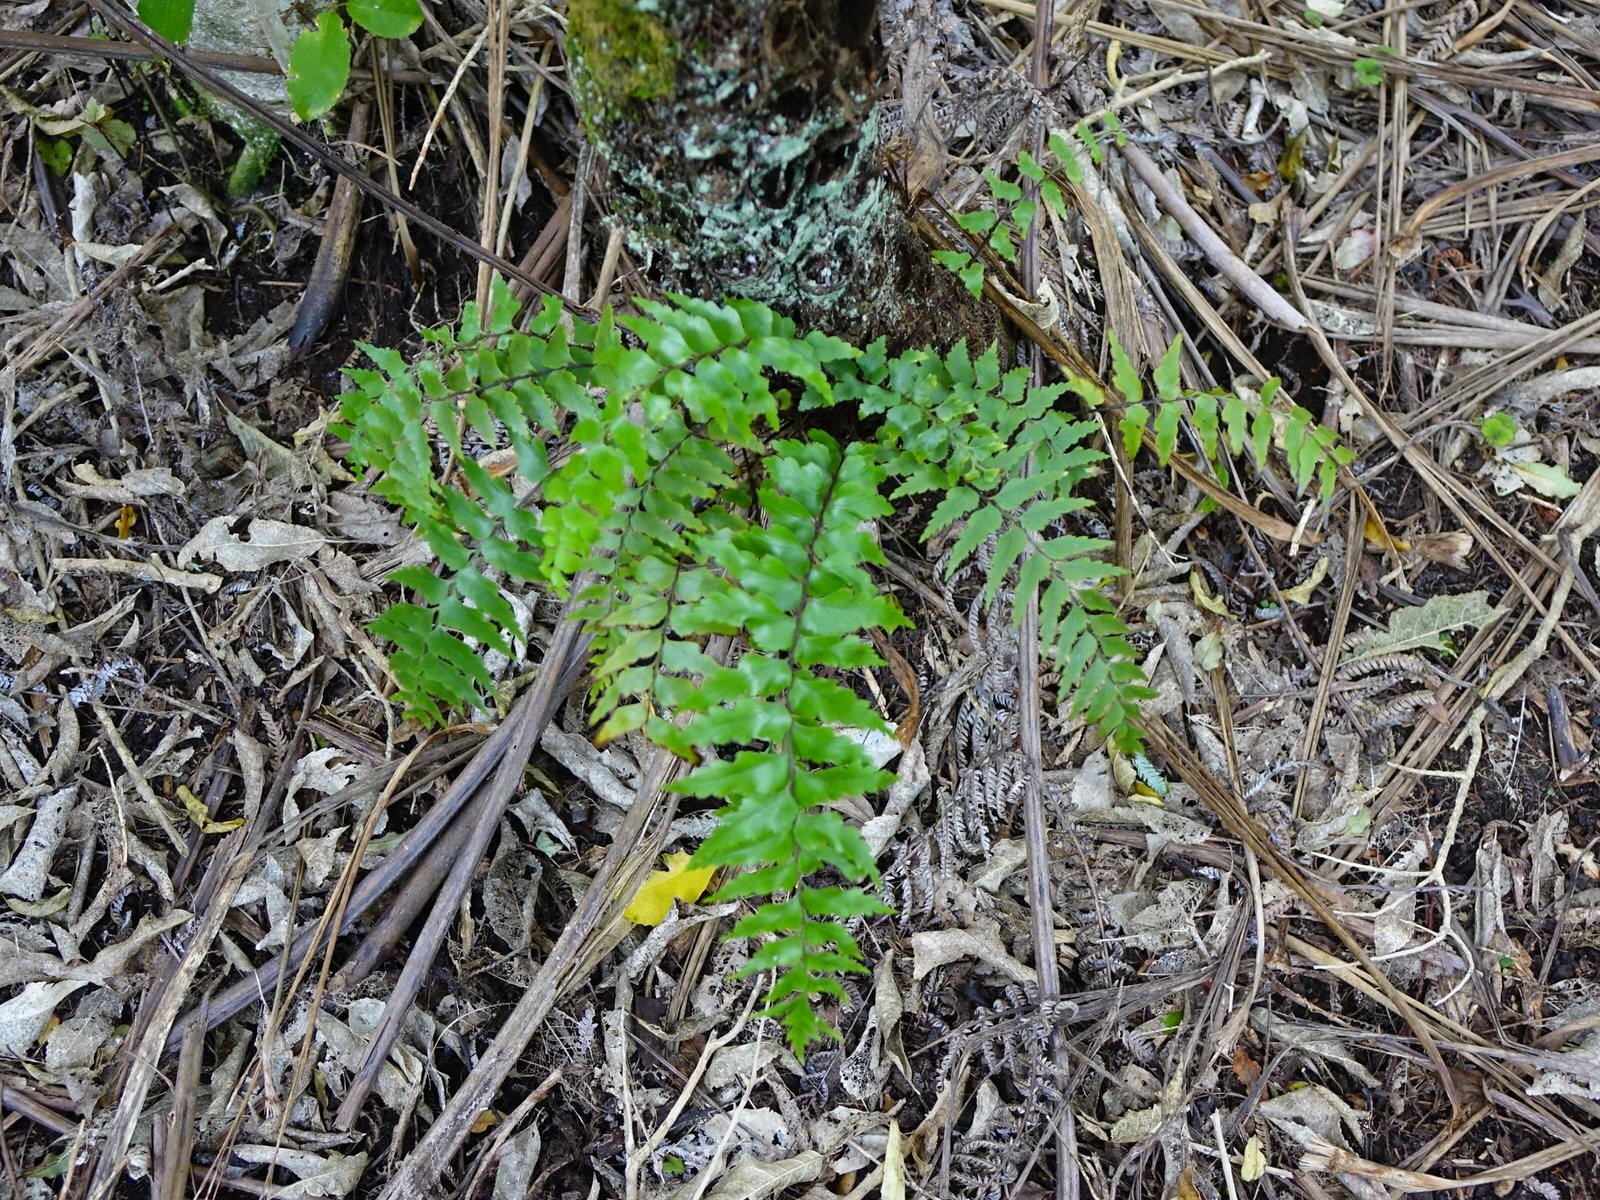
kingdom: Plantae
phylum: Tracheophyta
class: Polypodiopsida
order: Polypodiales
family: Aspleniaceae
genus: Asplenium
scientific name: Asplenium polyodon
